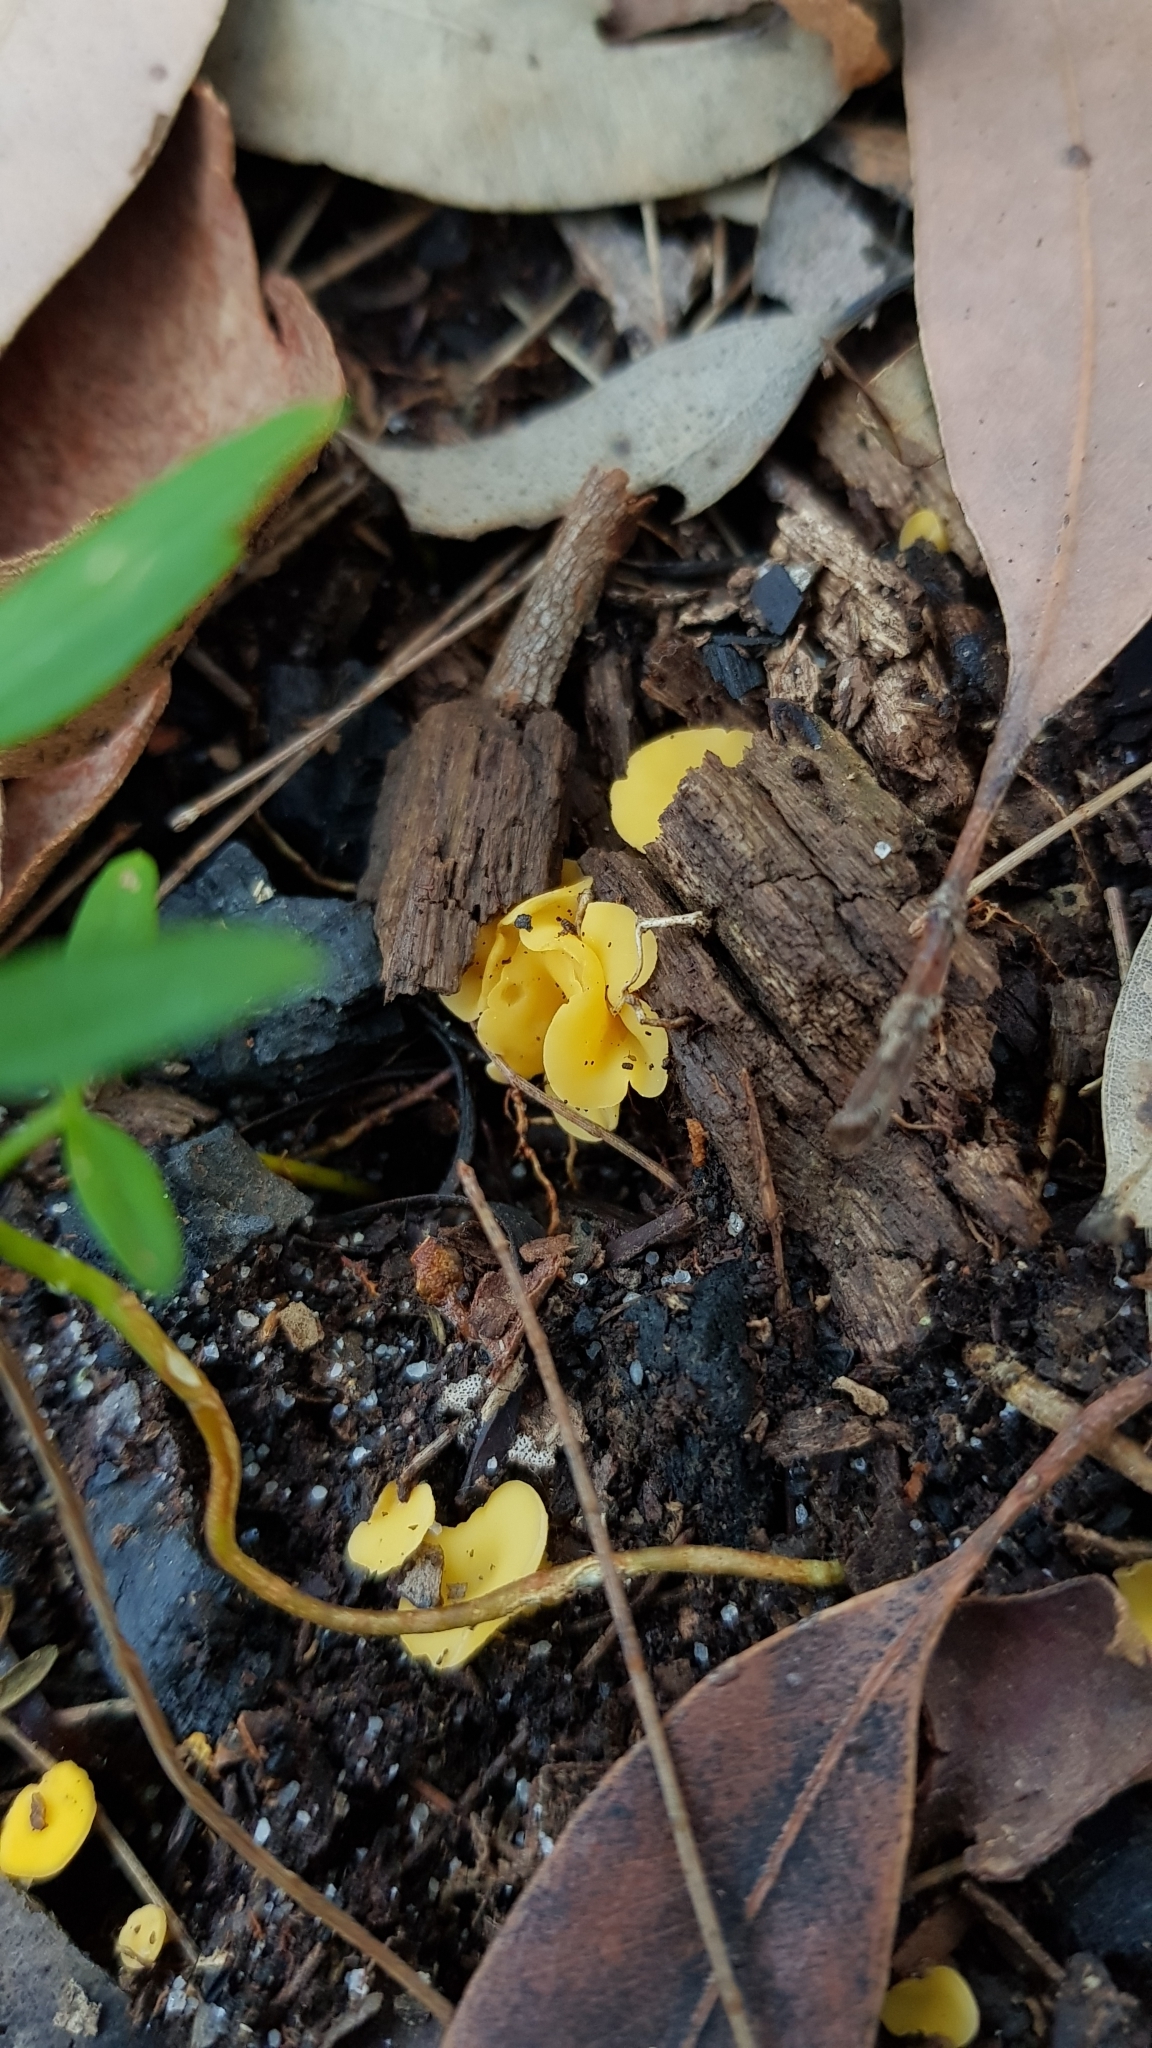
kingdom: Fungi
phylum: Ascomycota
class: Leotiomycetes
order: Helotiales
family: Helotiaceae
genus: Phaeohelotium
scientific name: Phaeohelotium baileyanum
